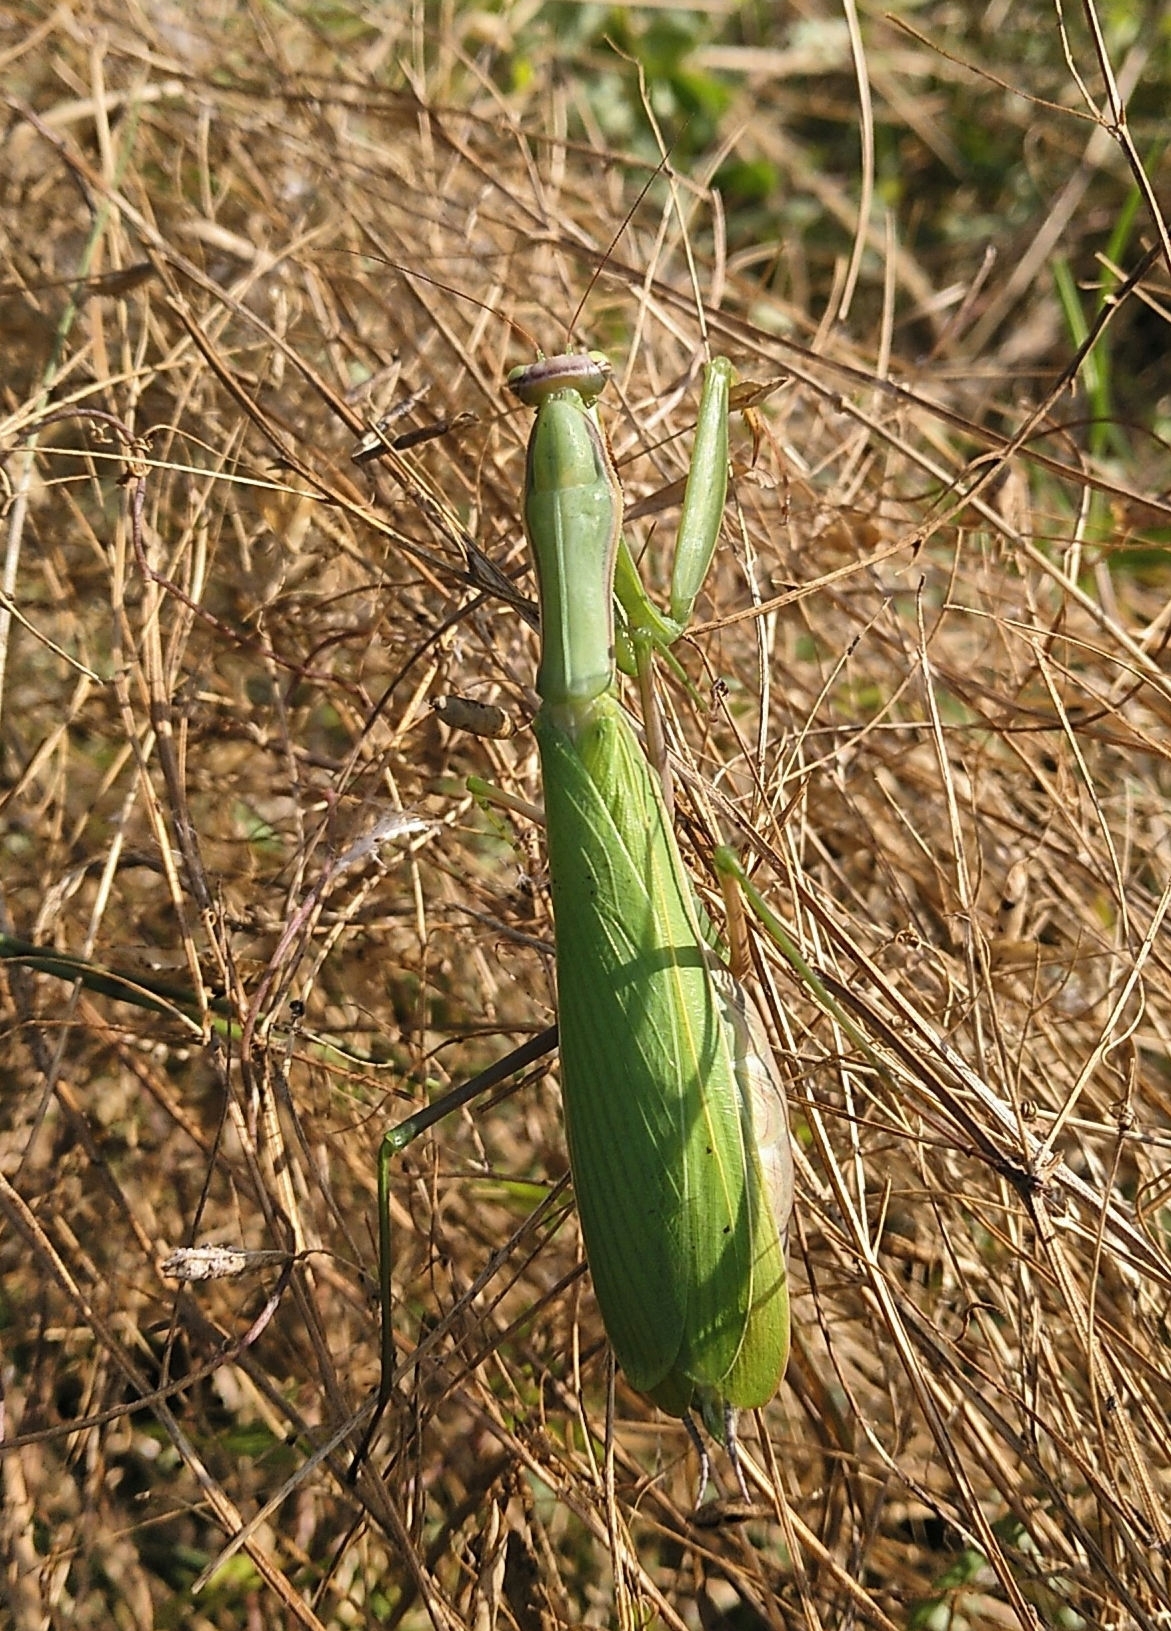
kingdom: Animalia
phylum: Arthropoda
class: Insecta
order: Mantodea
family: Mantidae
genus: Mantis
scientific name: Mantis religiosa
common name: Praying mantis
